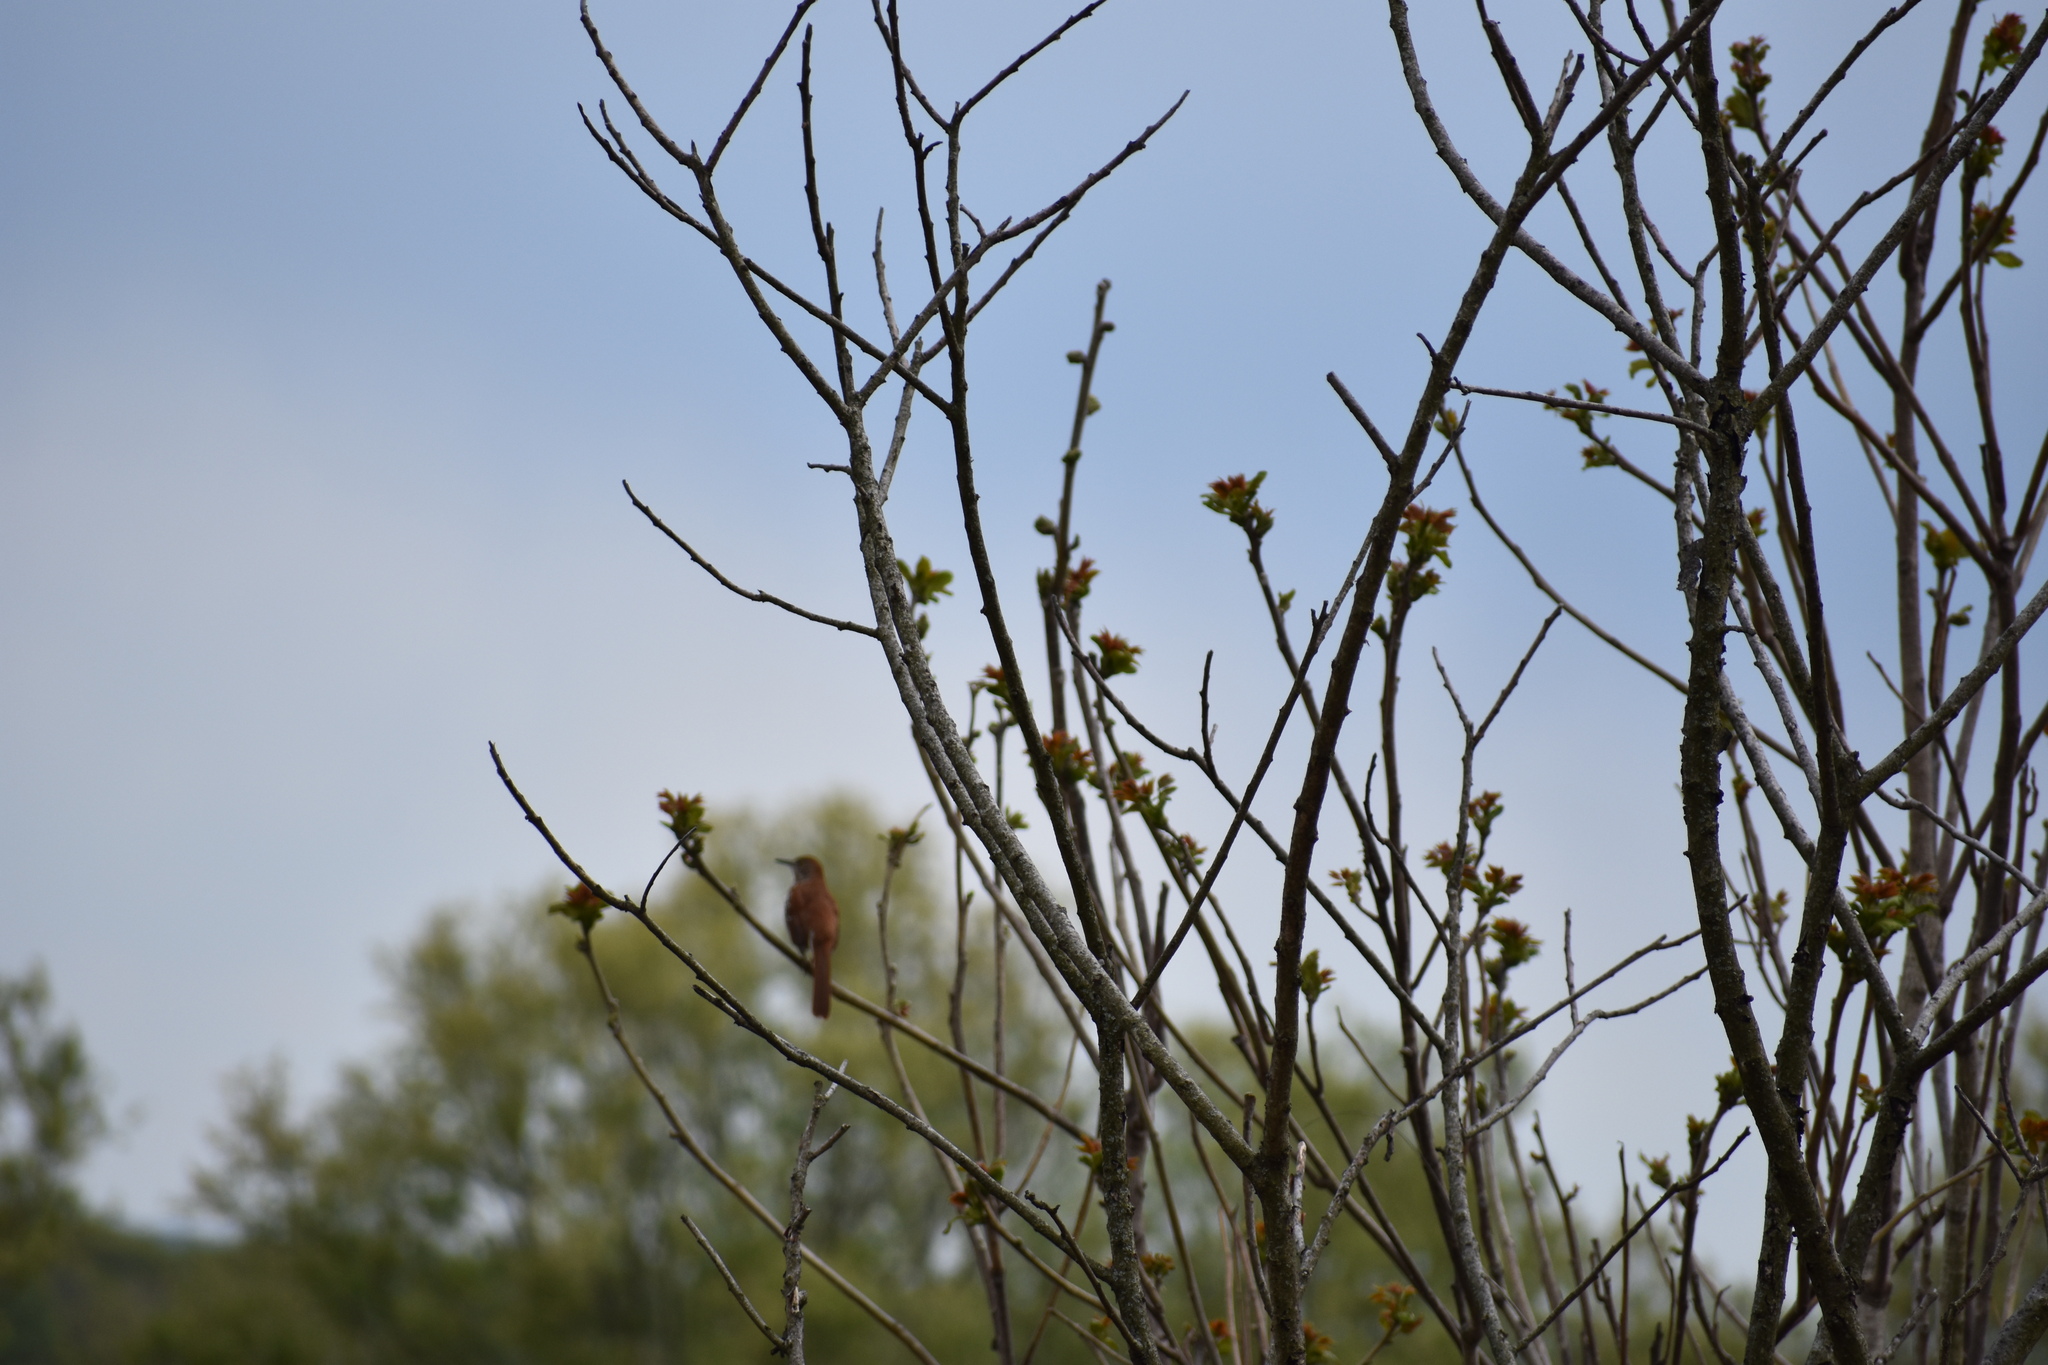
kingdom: Animalia
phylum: Chordata
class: Aves
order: Passeriformes
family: Mimidae
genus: Toxostoma
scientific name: Toxostoma rufum
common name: Brown thrasher
